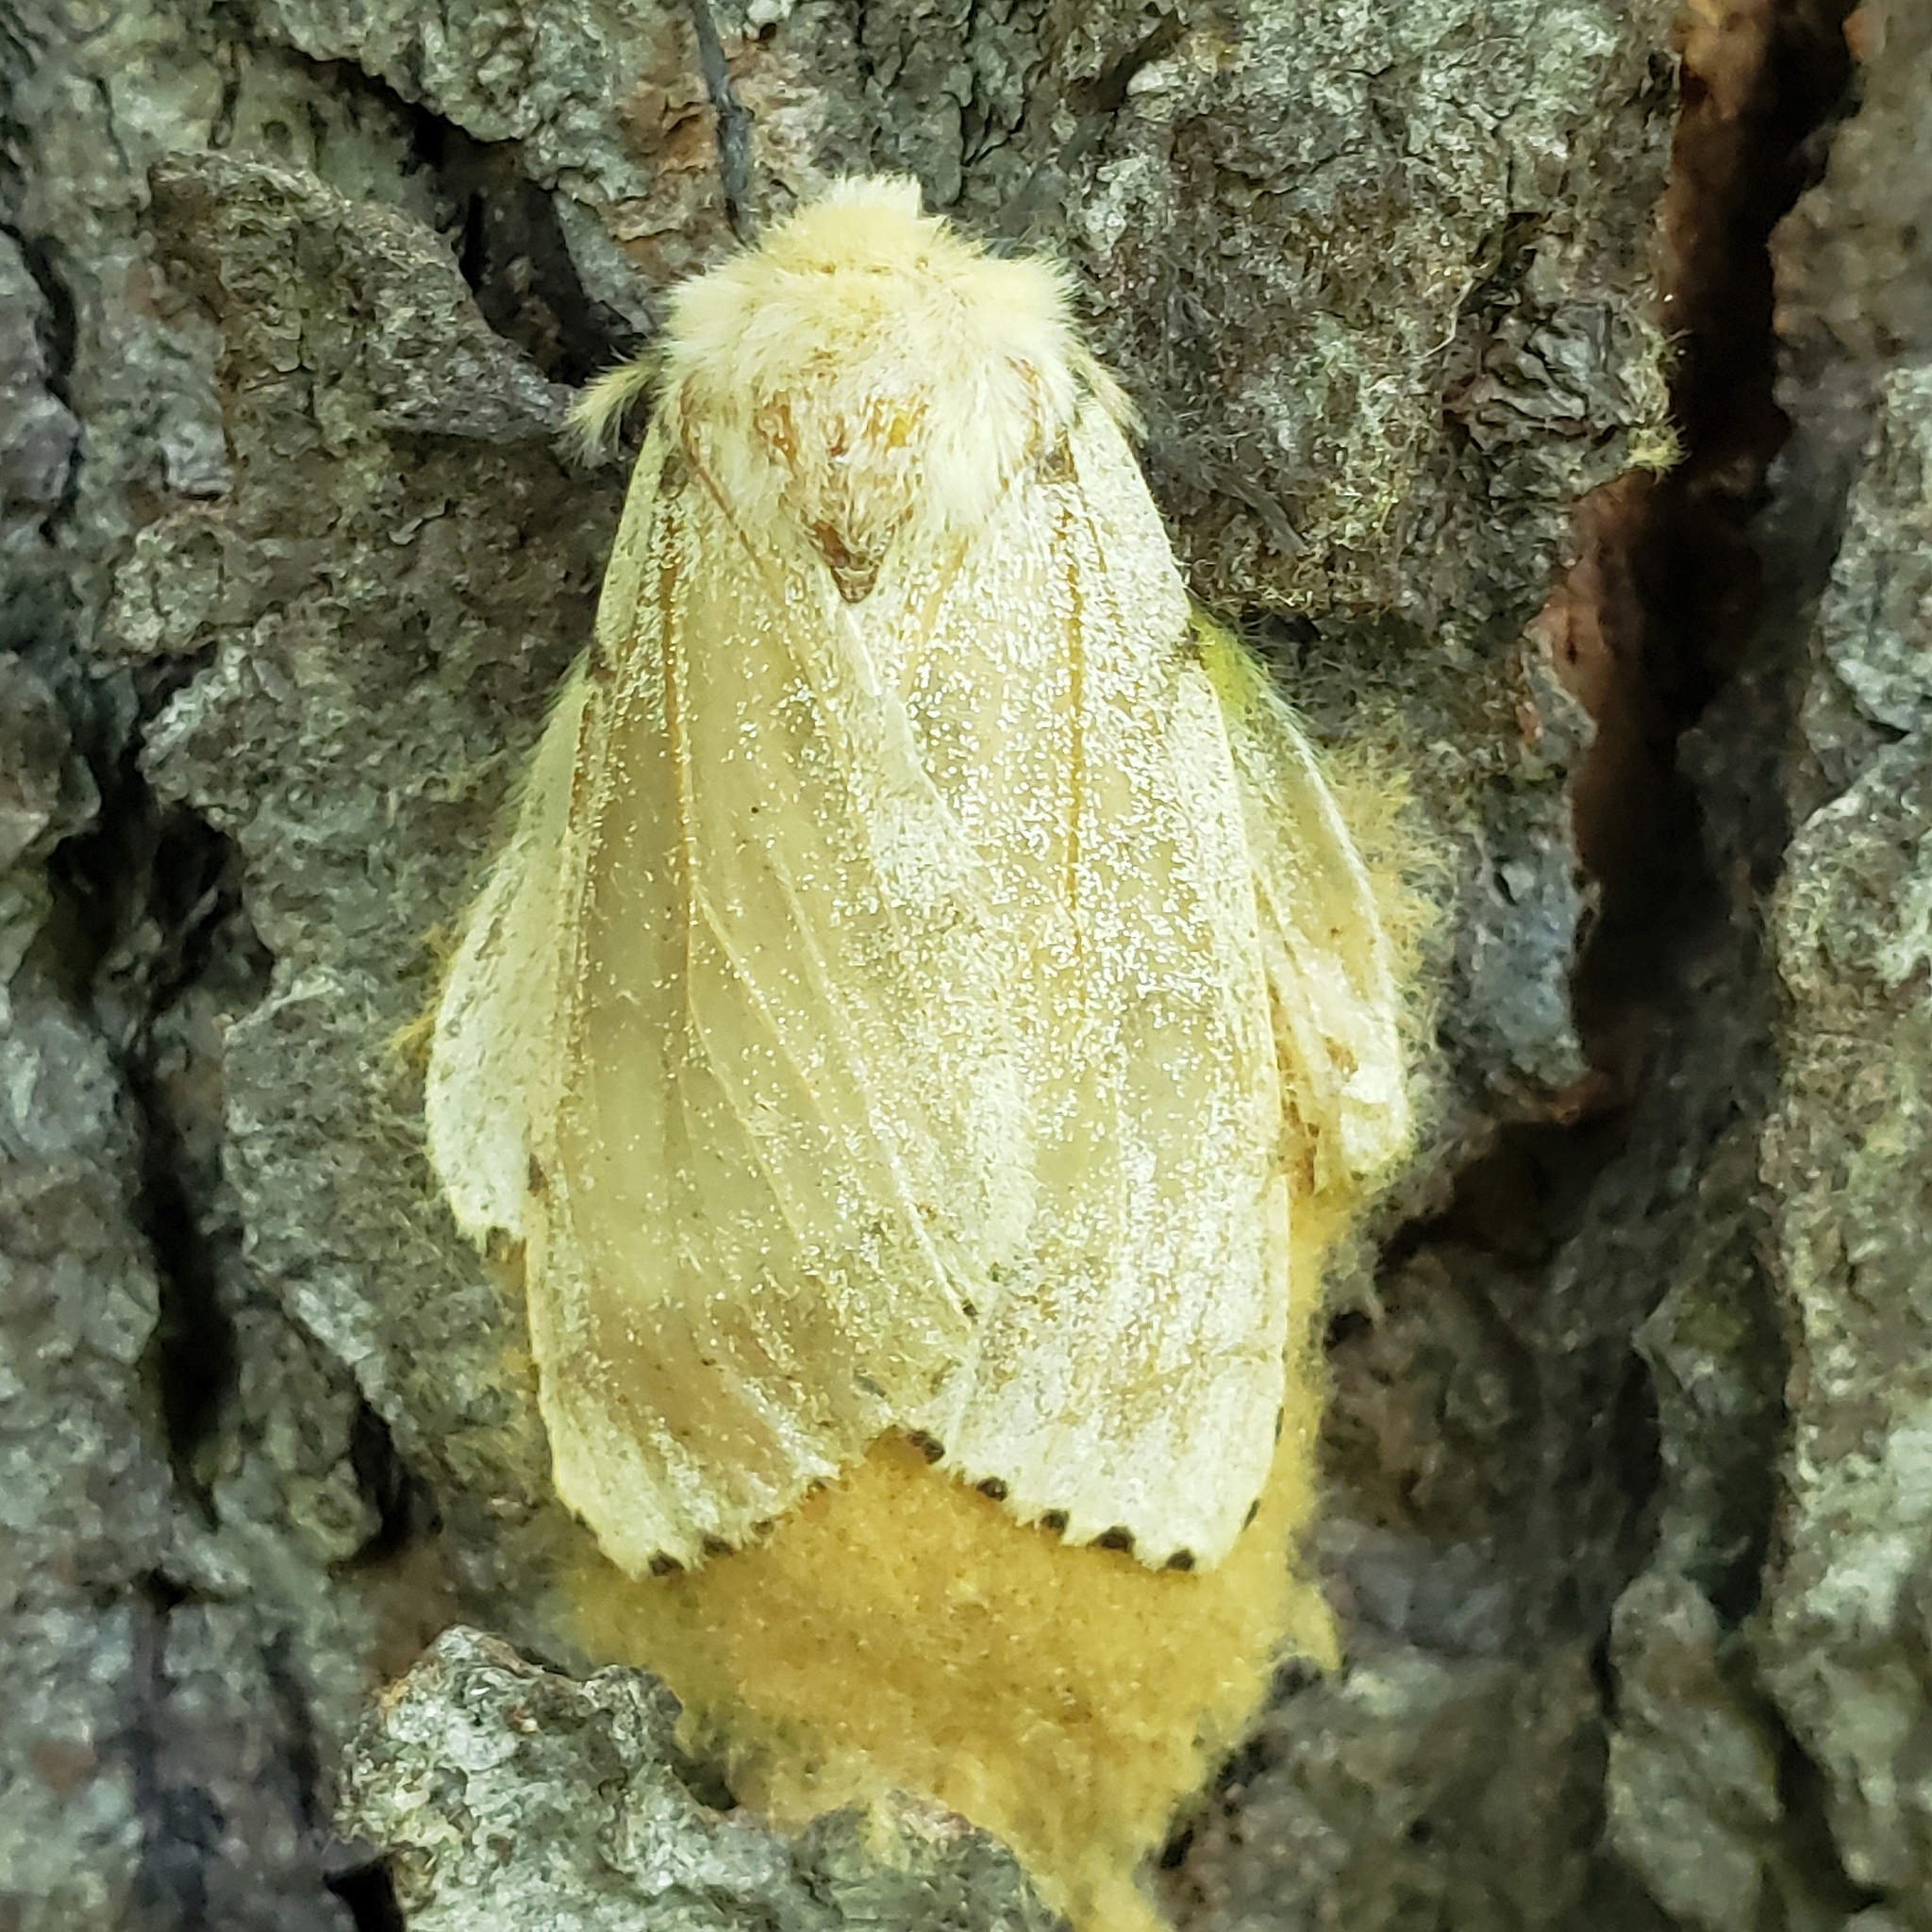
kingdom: Animalia
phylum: Arthropoda
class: Insecta
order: Lepidoptera
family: Erebidae
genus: Lymantria
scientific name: Lymantria dispar
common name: Gypsy moth
